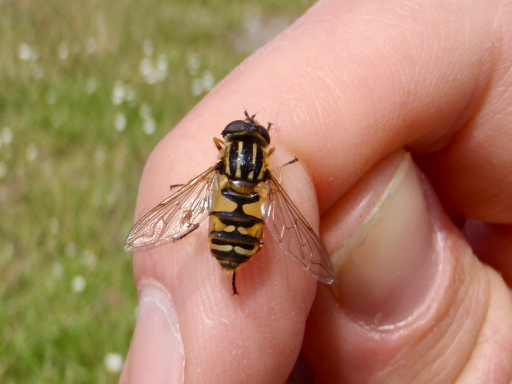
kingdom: Animalia
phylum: Arthropoda
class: Insecta
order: Diptera
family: Syrphidae
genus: Helophilus
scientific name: Helophilus pendulus
